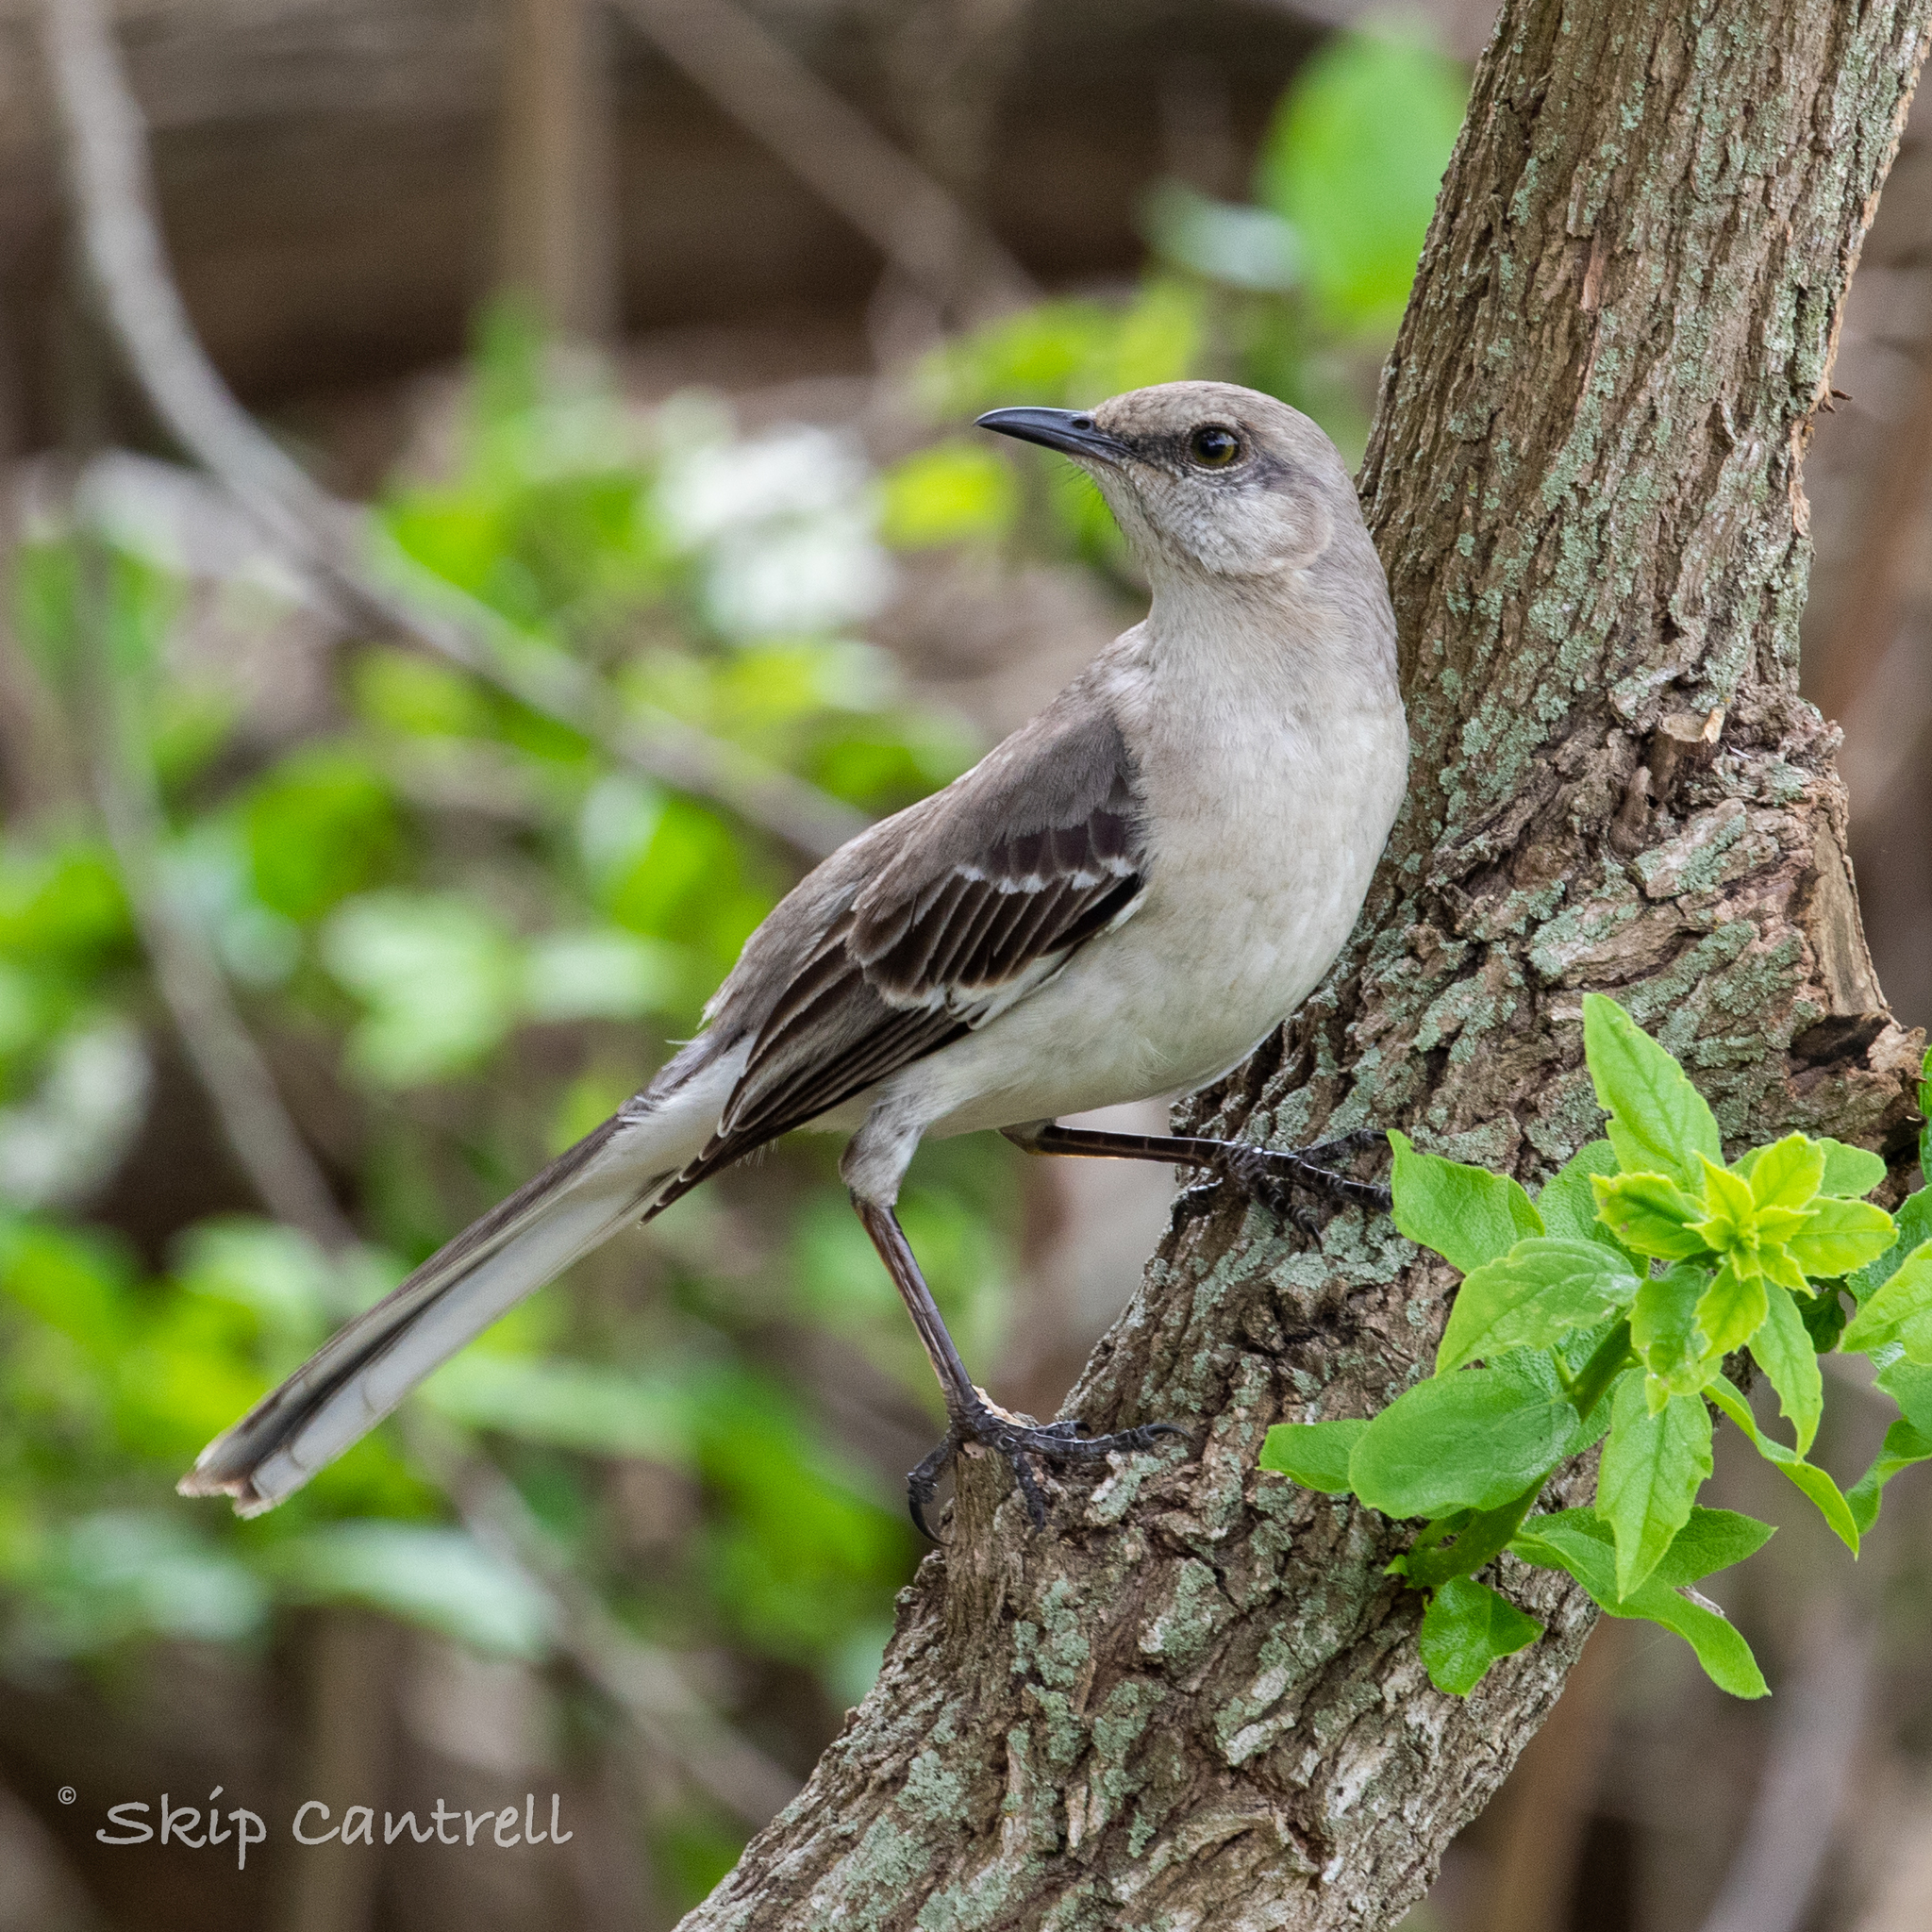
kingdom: Animalia
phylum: Chordata
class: Aves
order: Passeriformes
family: Mimidae
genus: Mimus
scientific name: Mimus polyglottos
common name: Northern mockingbird
